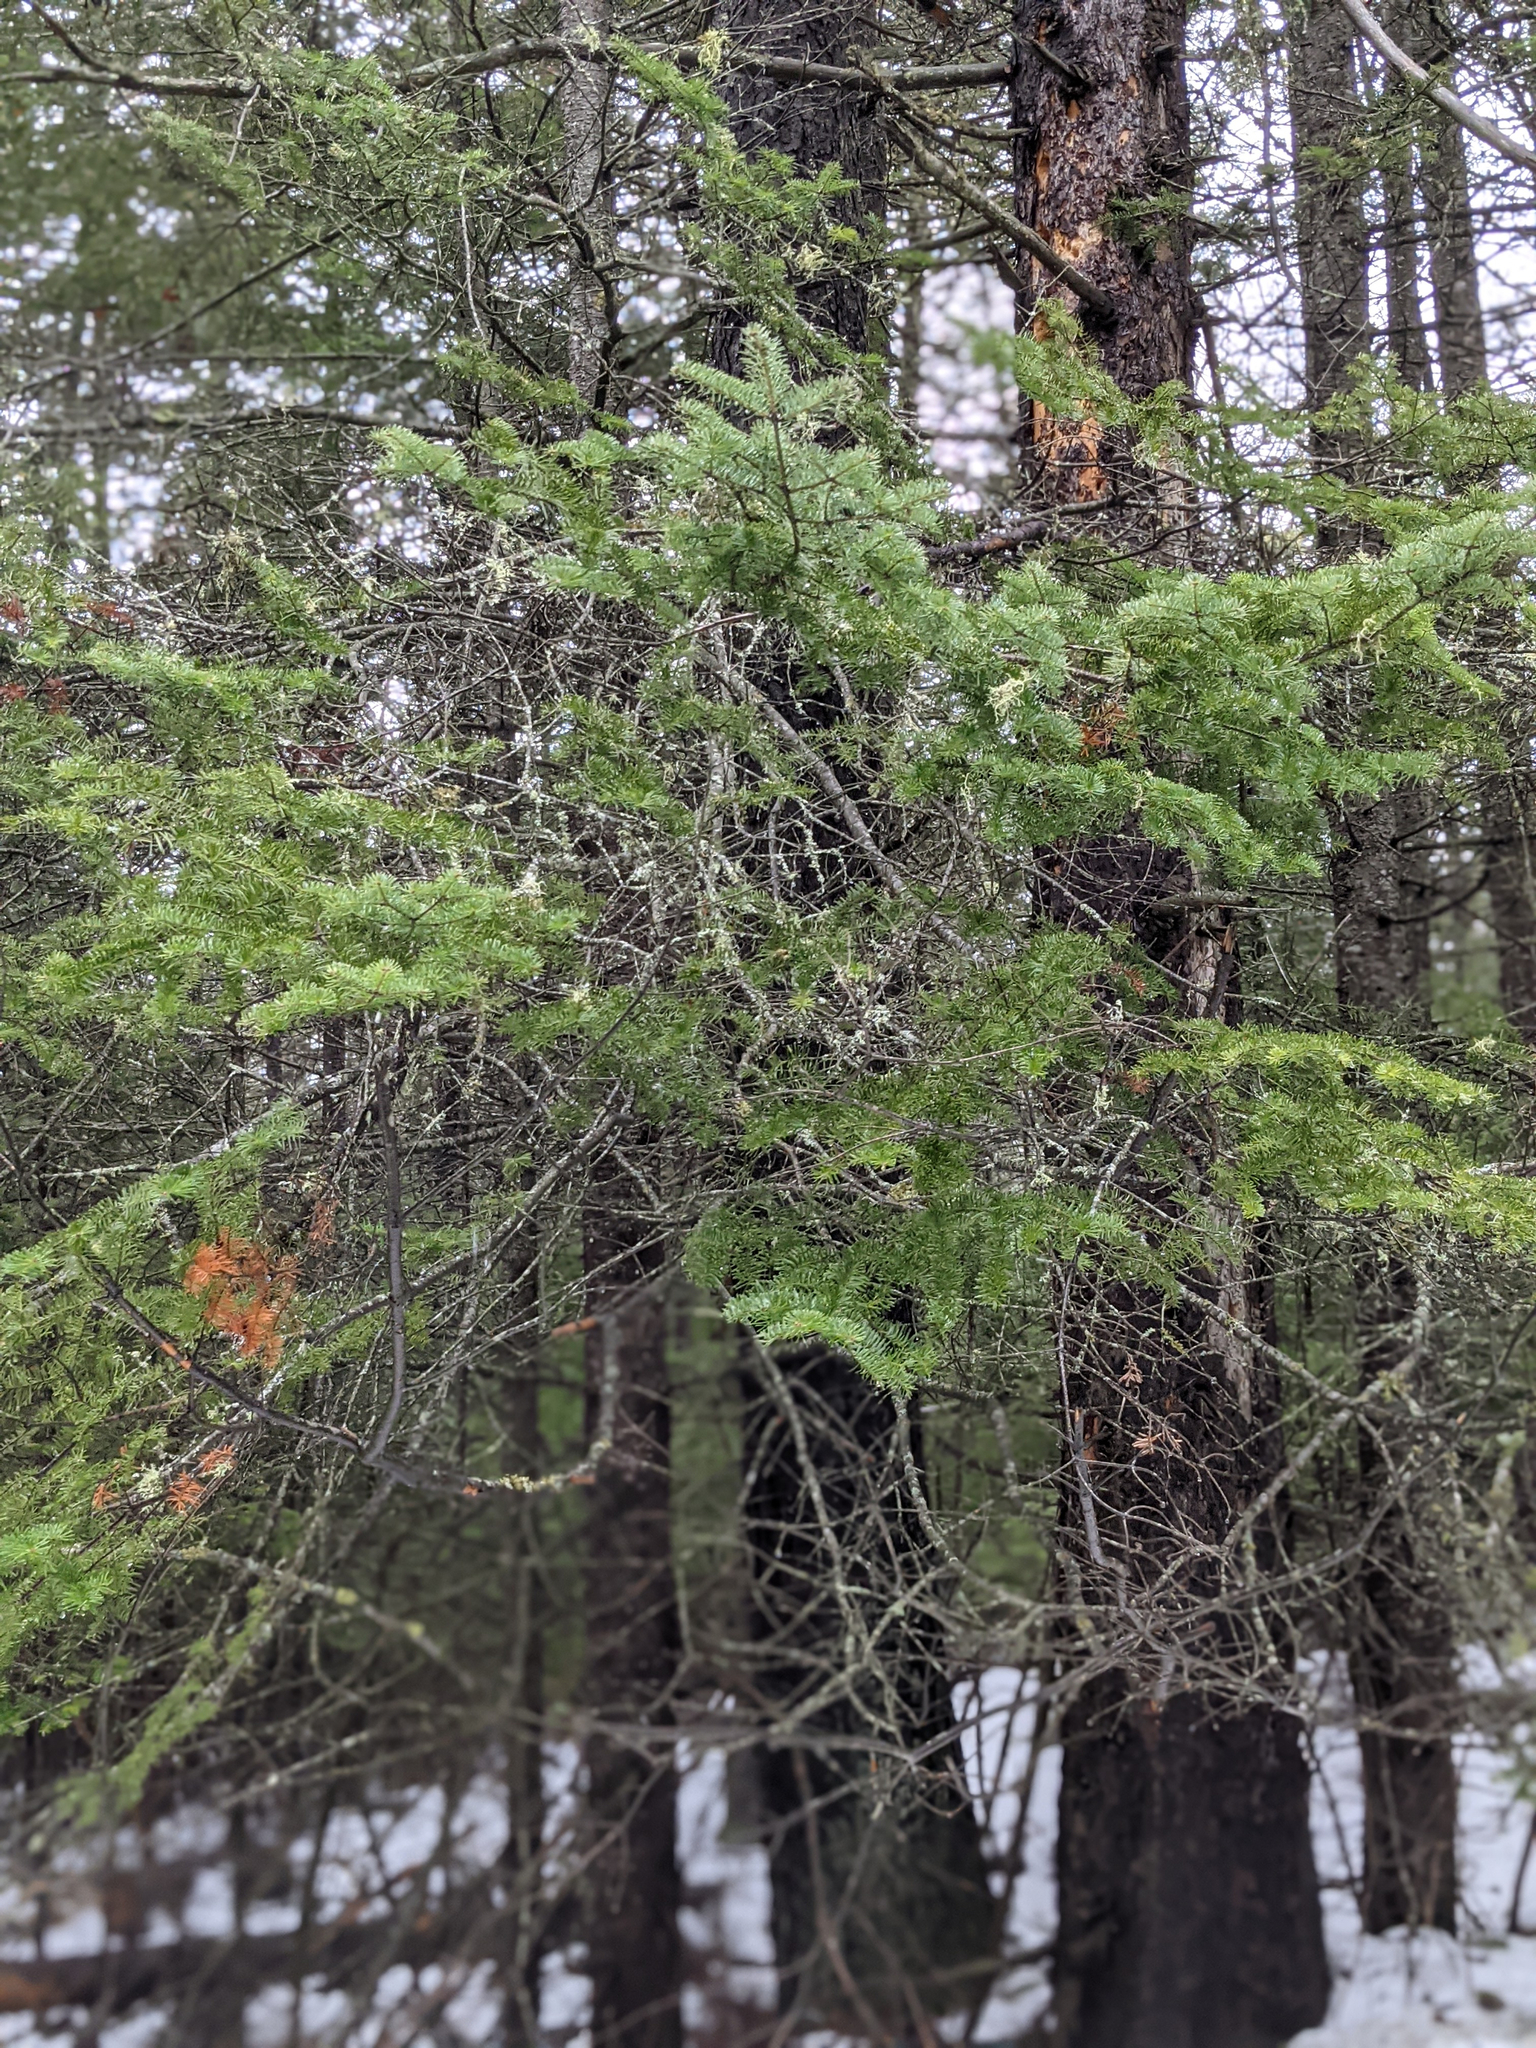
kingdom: Plantae
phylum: Tracheophyta
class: Pinopsida
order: Pinales
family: Pinaceae
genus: Abies
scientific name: Abies balsamea
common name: Balsam fir
